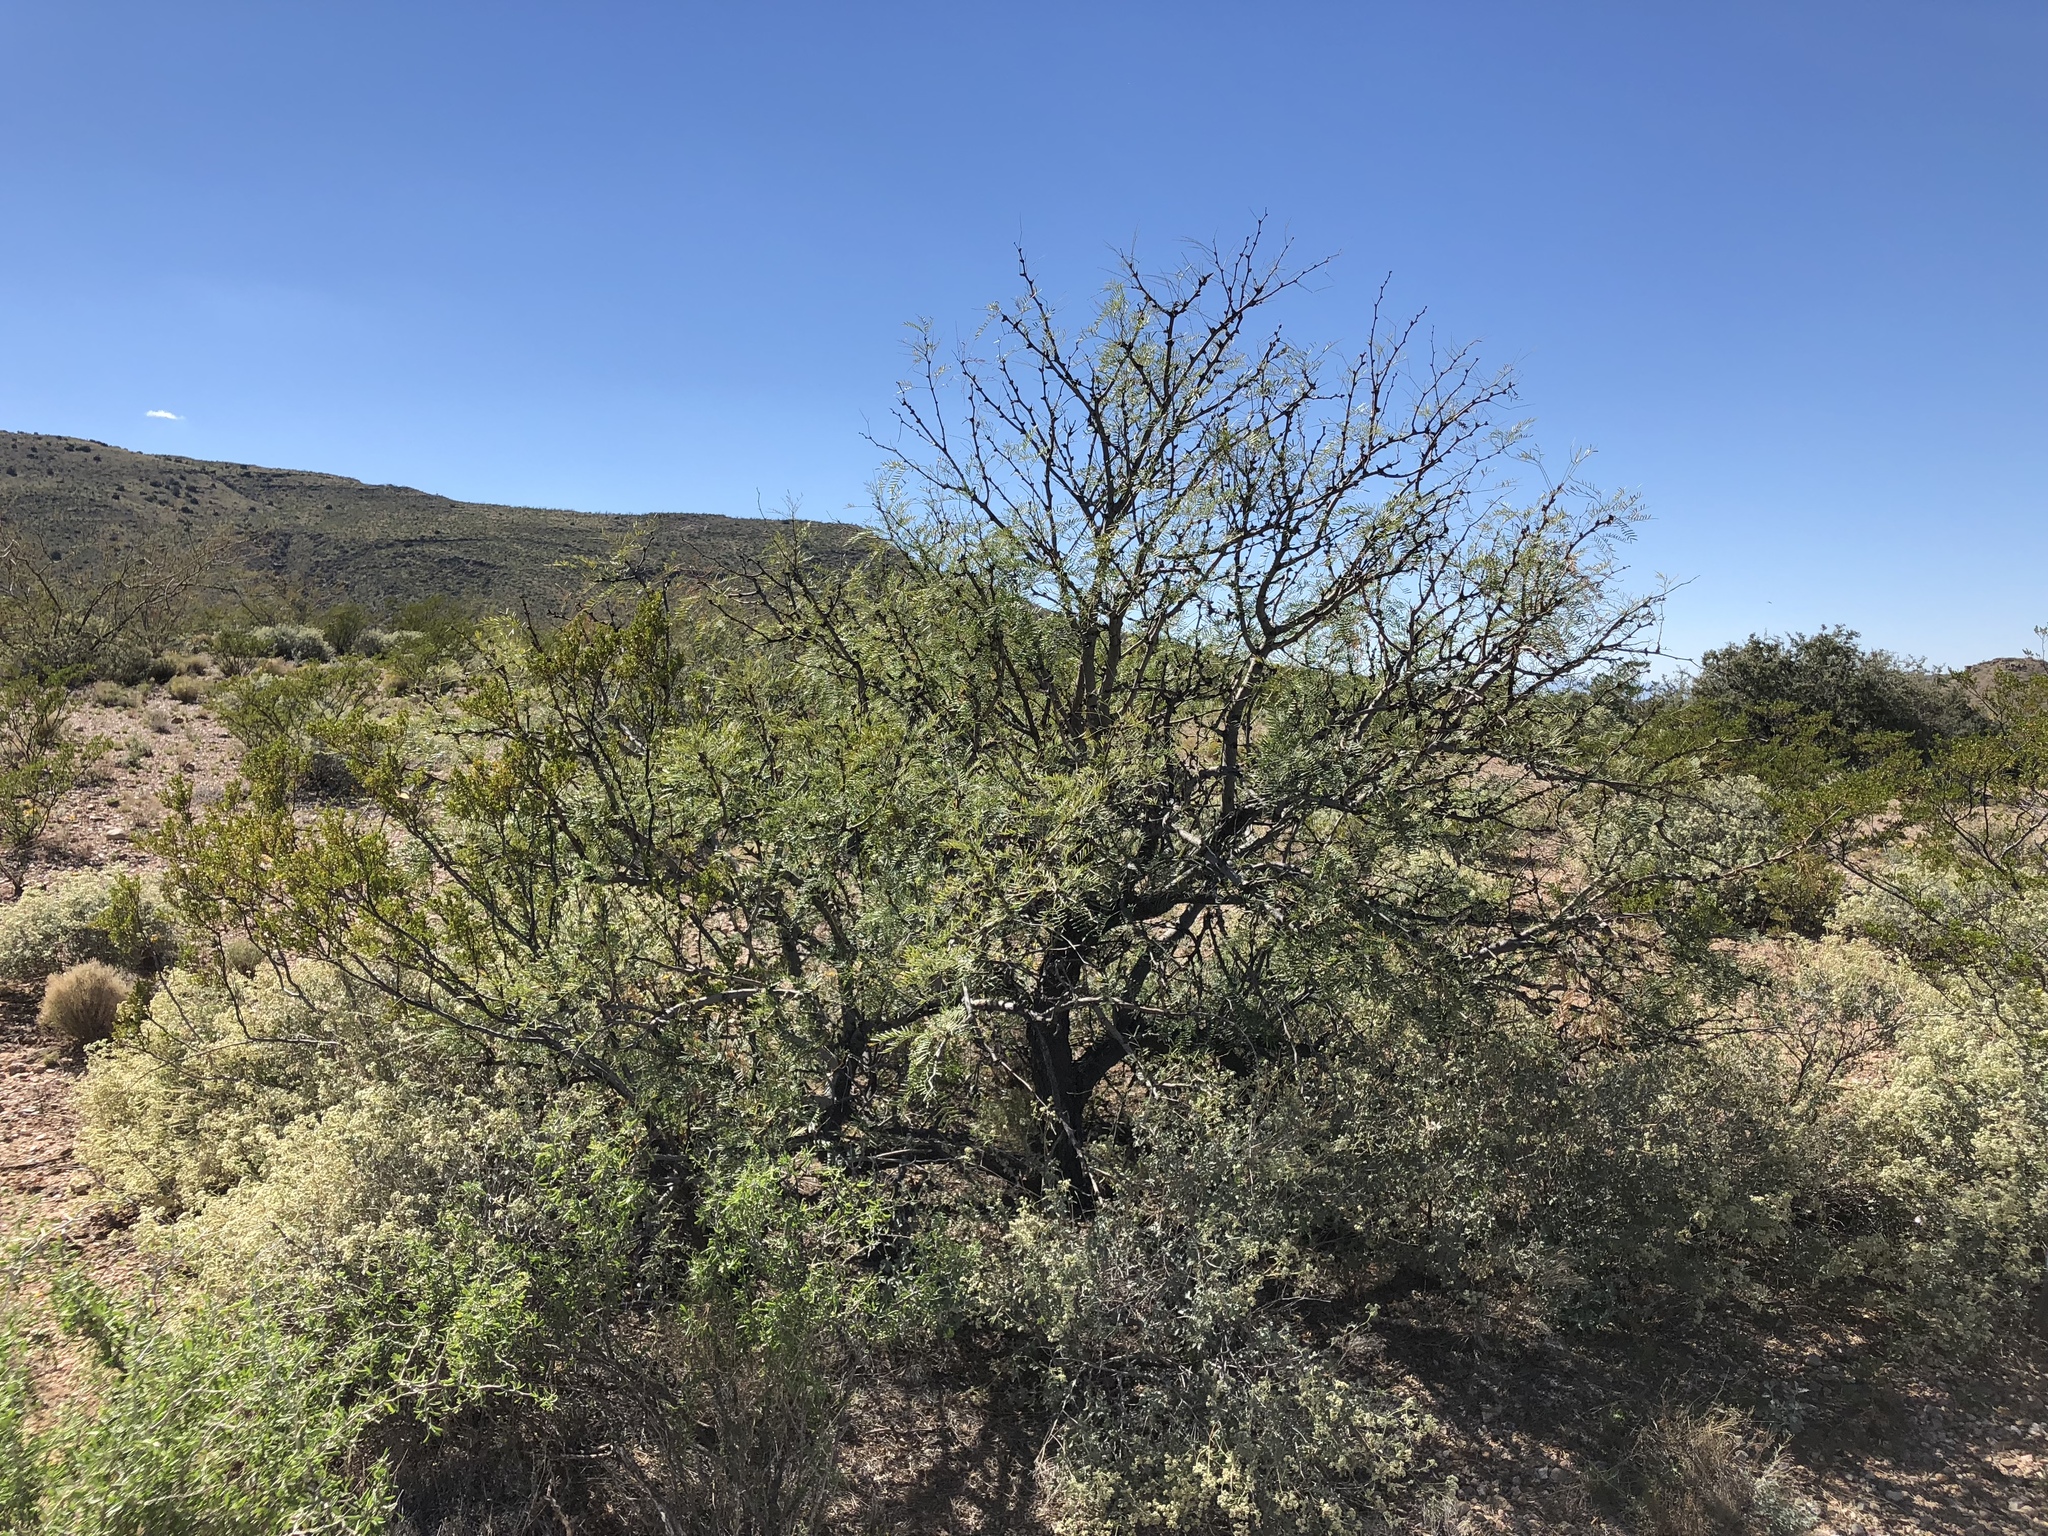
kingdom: Plantae
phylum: Tracheophyta
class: Magnoliopsida
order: Fabales
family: Fabaceae
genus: Prosopis
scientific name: Prosopis glandulosa
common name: Honey mesquite
